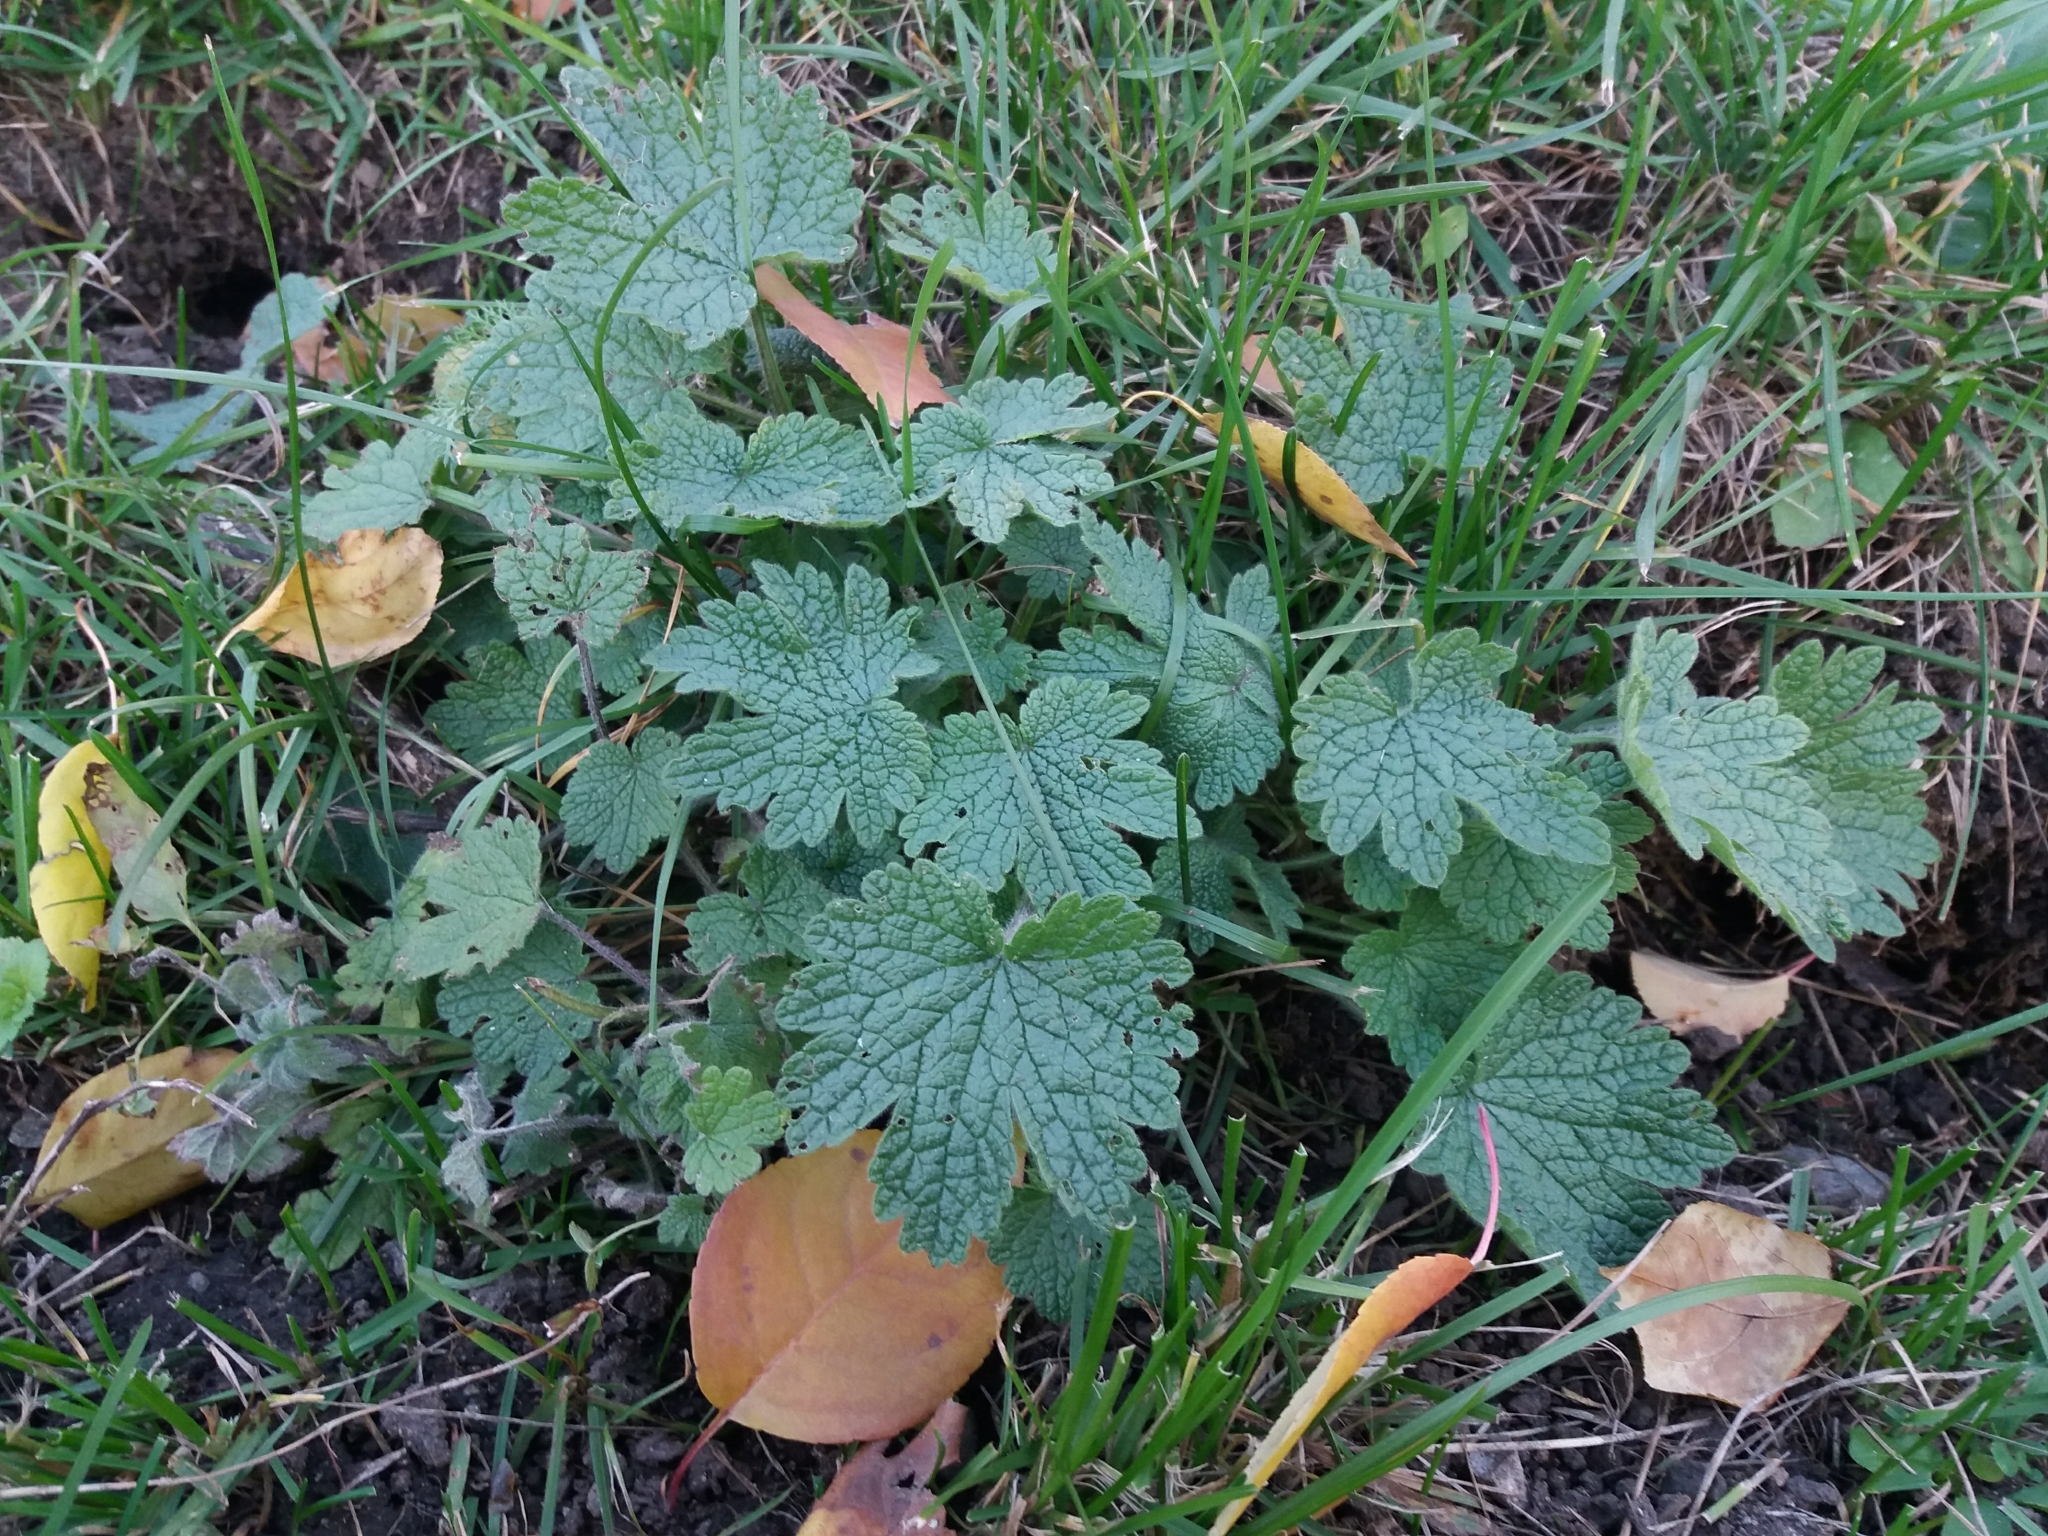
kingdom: Plantae
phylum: Tracheophyta
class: Magnoliopsida
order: Lamiales
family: Lamiaceae
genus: Leonurus
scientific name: Leonurus quinquelobatus
